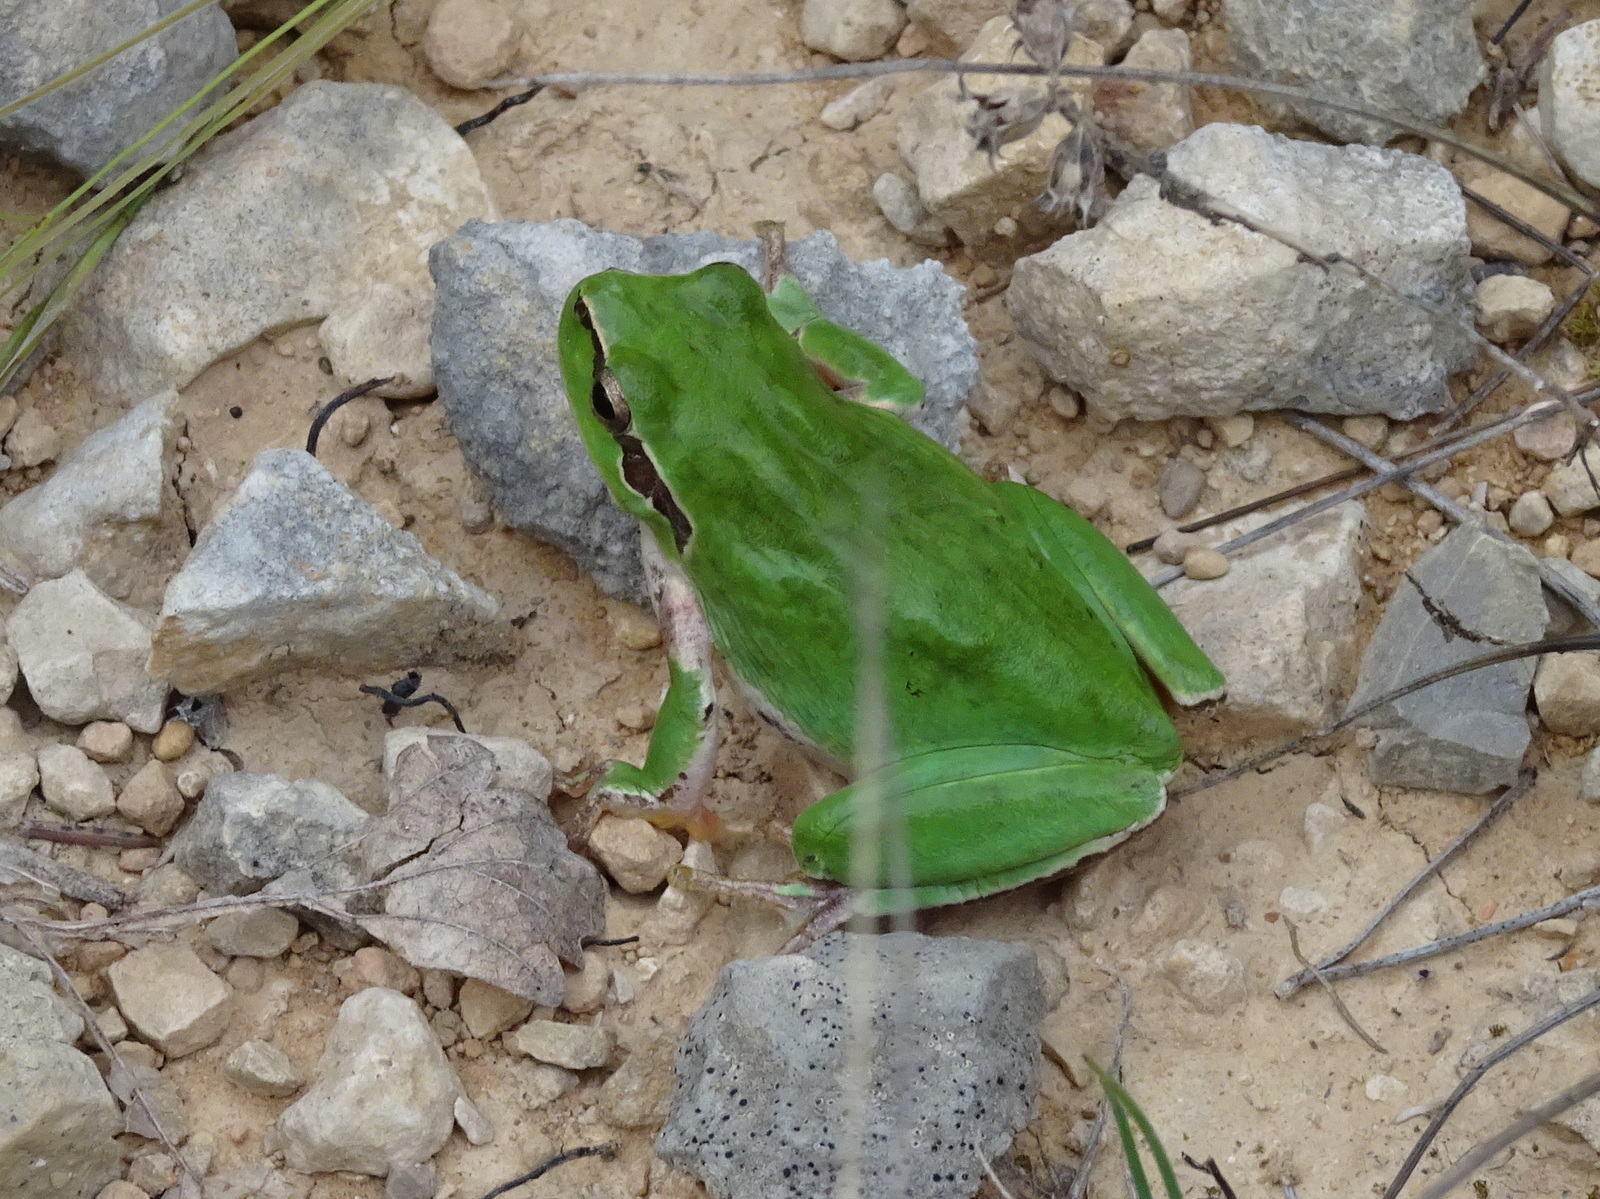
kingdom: Animalia
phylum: Chordata
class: Amphibia
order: Anura
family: Hylidae
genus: Hyla
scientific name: Hyla meridionalis
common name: Stripeless tree frog
